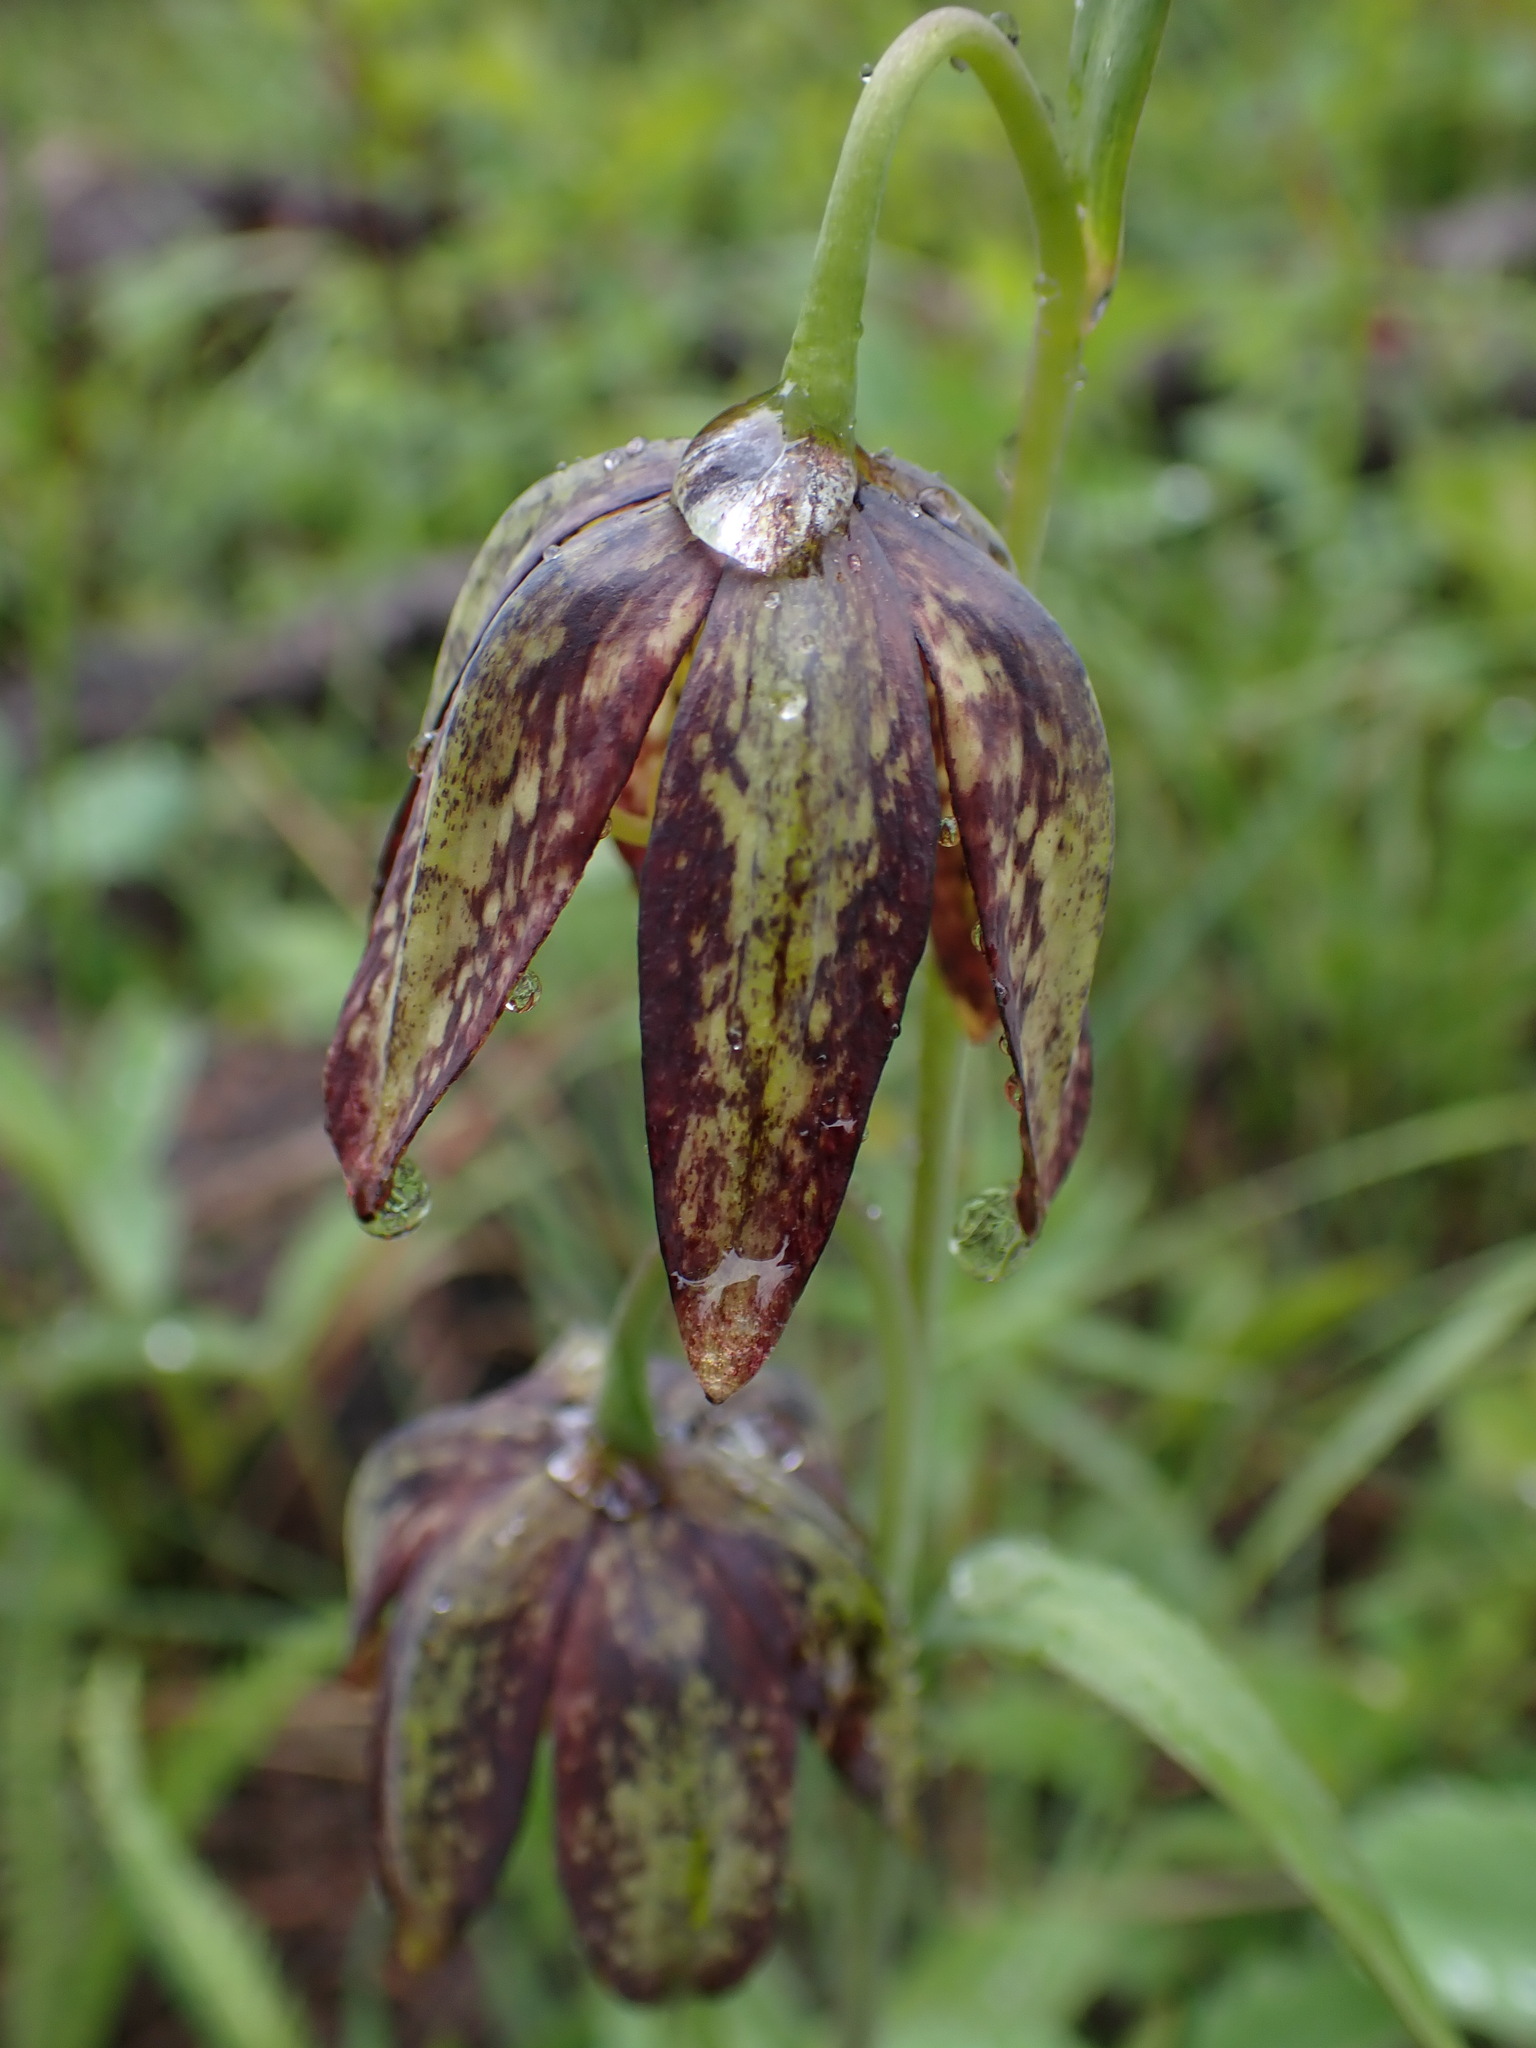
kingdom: Plantae
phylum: Tracheophyta
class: Liliopsida
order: Liliales
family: Liliaceae
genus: Fritillaria
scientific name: Fritillaria affinis
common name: Ojai fritillary
